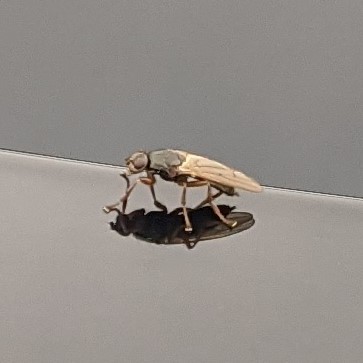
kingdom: Animalia
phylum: Arthropoda
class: Insecta
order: Diptera
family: Coelopidae
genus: Coelopa
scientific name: Coelopa frigida
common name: Kelp fly
